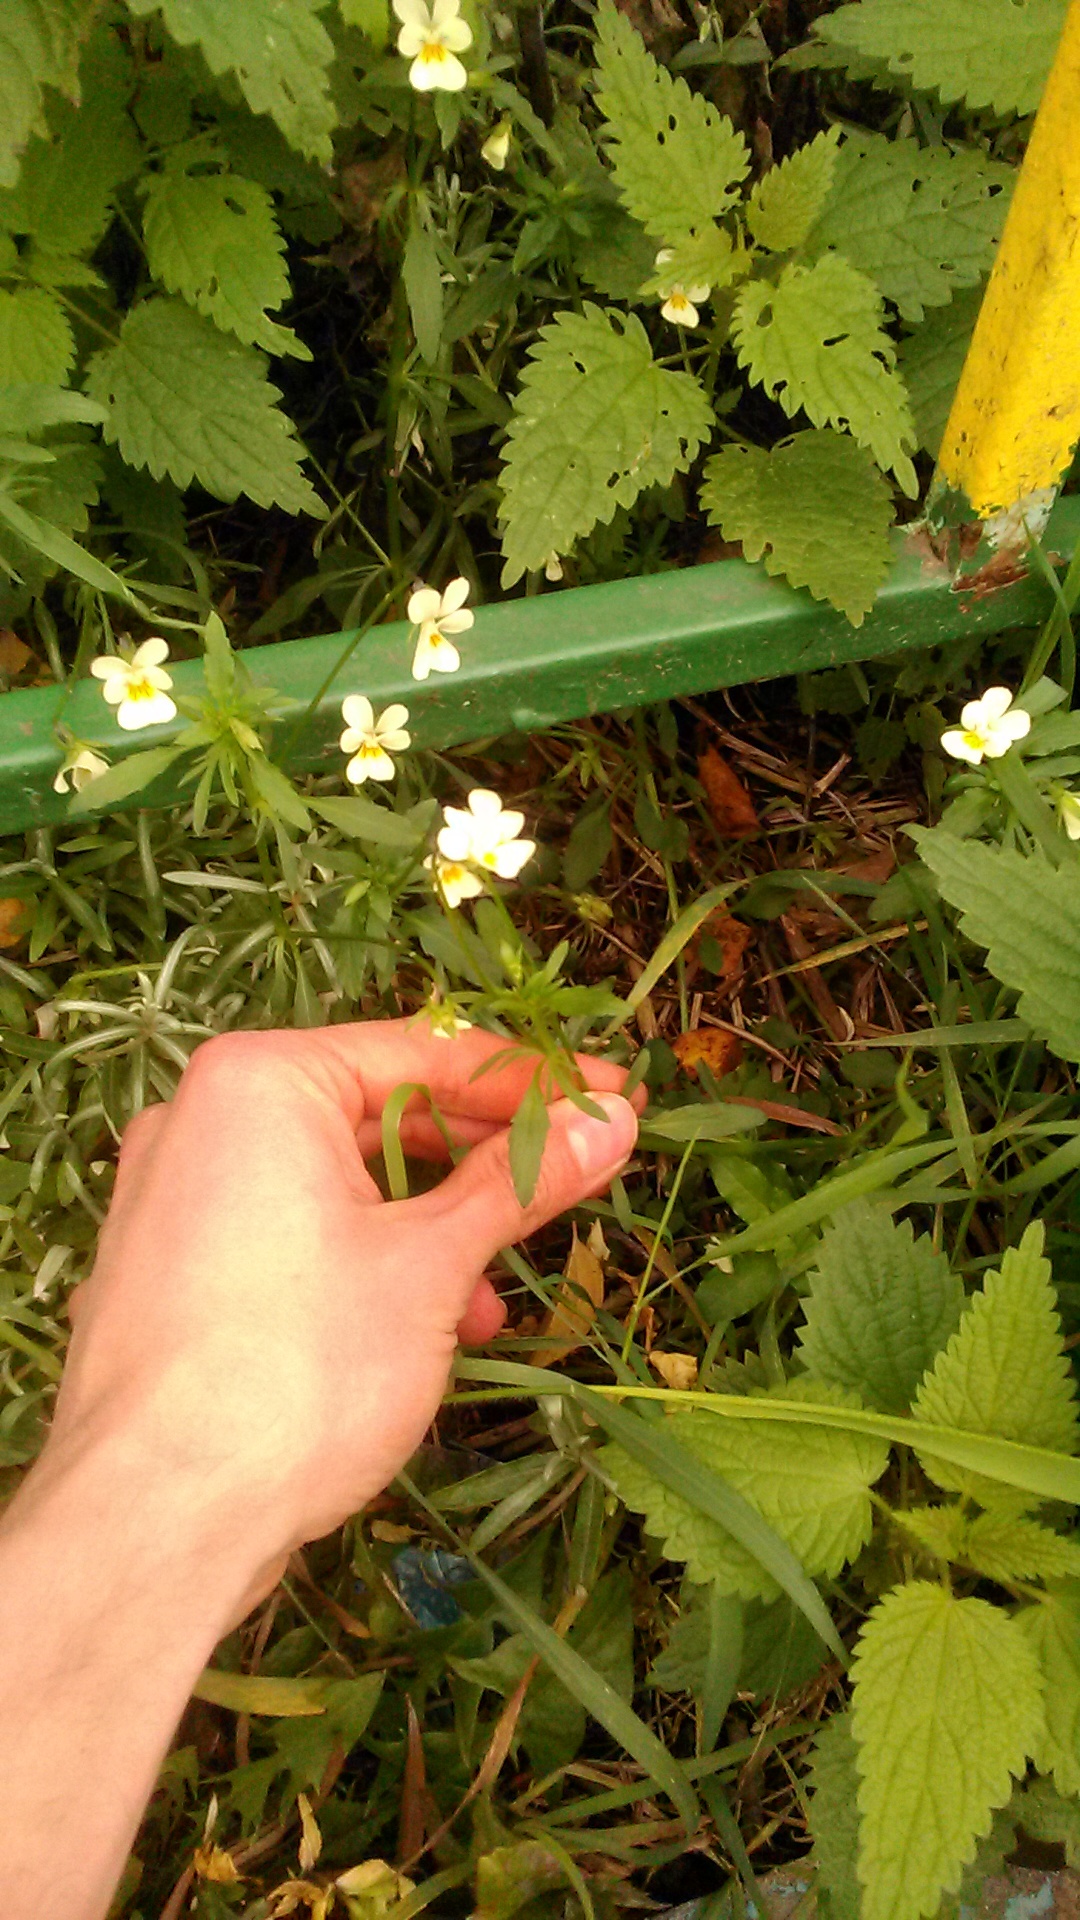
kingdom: Plantae
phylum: Tracheophyta
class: Magnoliopsida
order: Malpighiales
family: Violaceae
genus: Viola
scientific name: Viola arvensis
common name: Field pansy
